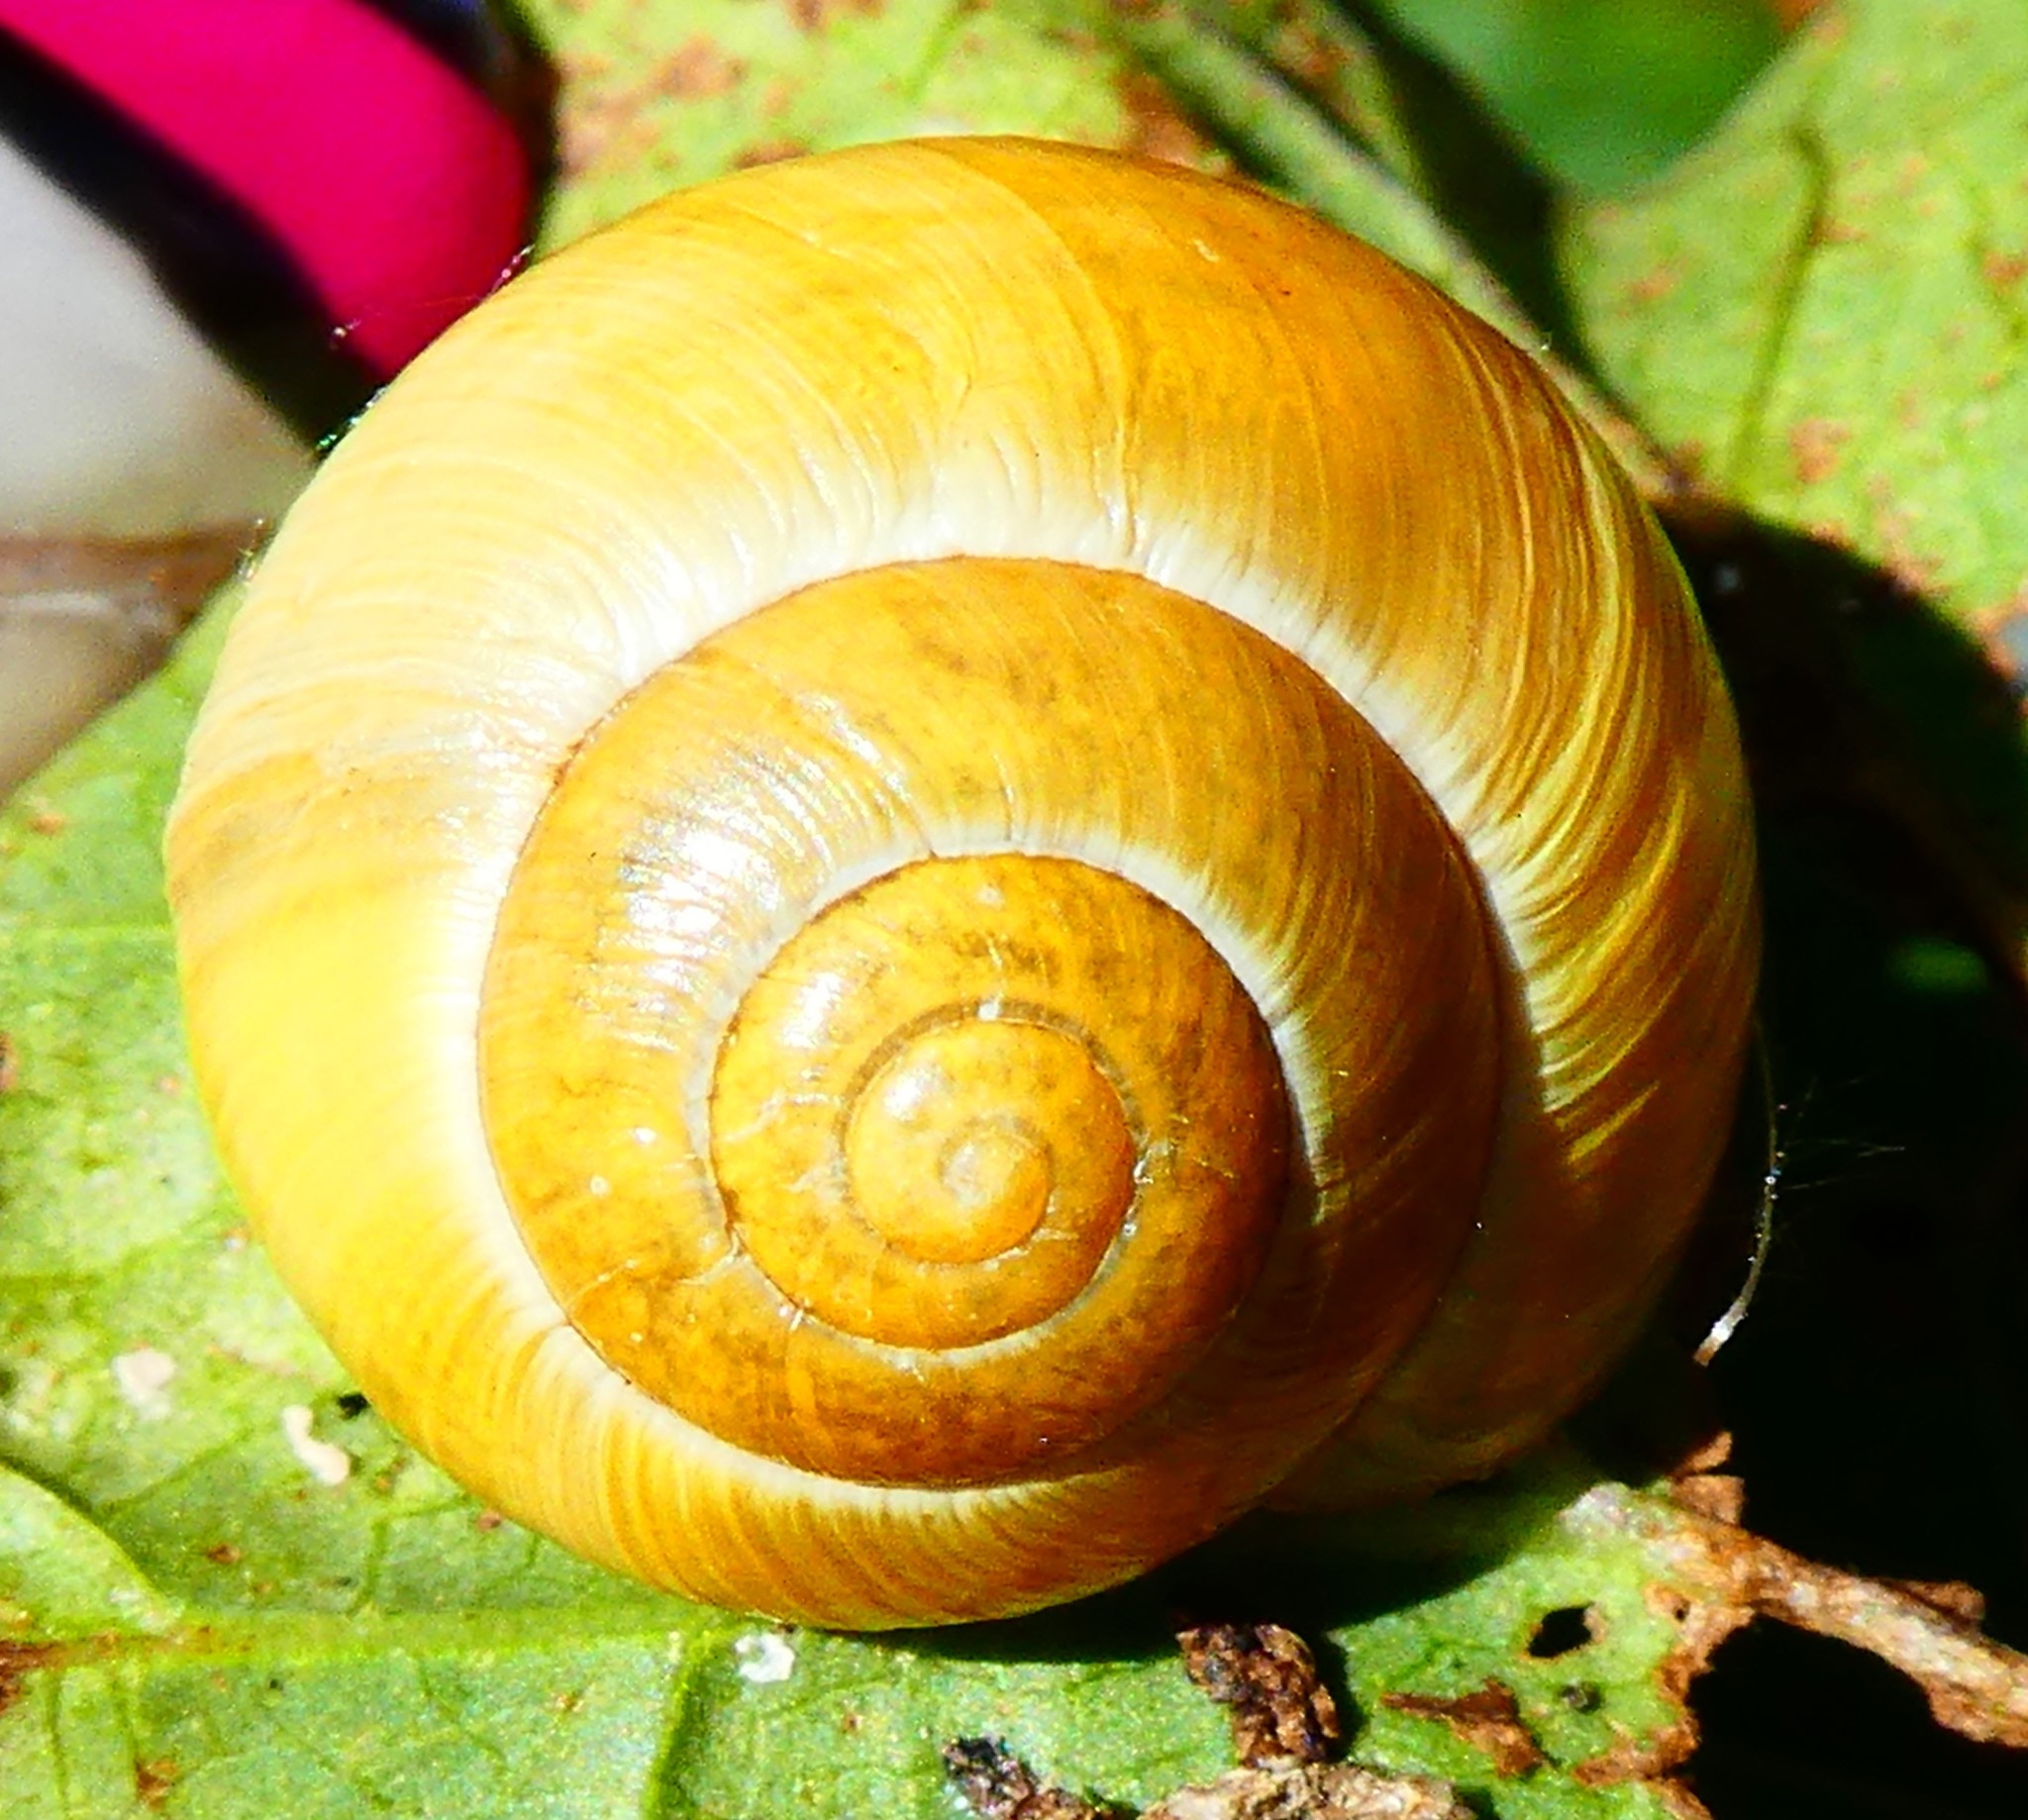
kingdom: Animalia
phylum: Mollusca
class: Gastropoda
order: Stylommatophora
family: Helicidae
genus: Cepaea
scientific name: Cepaea
